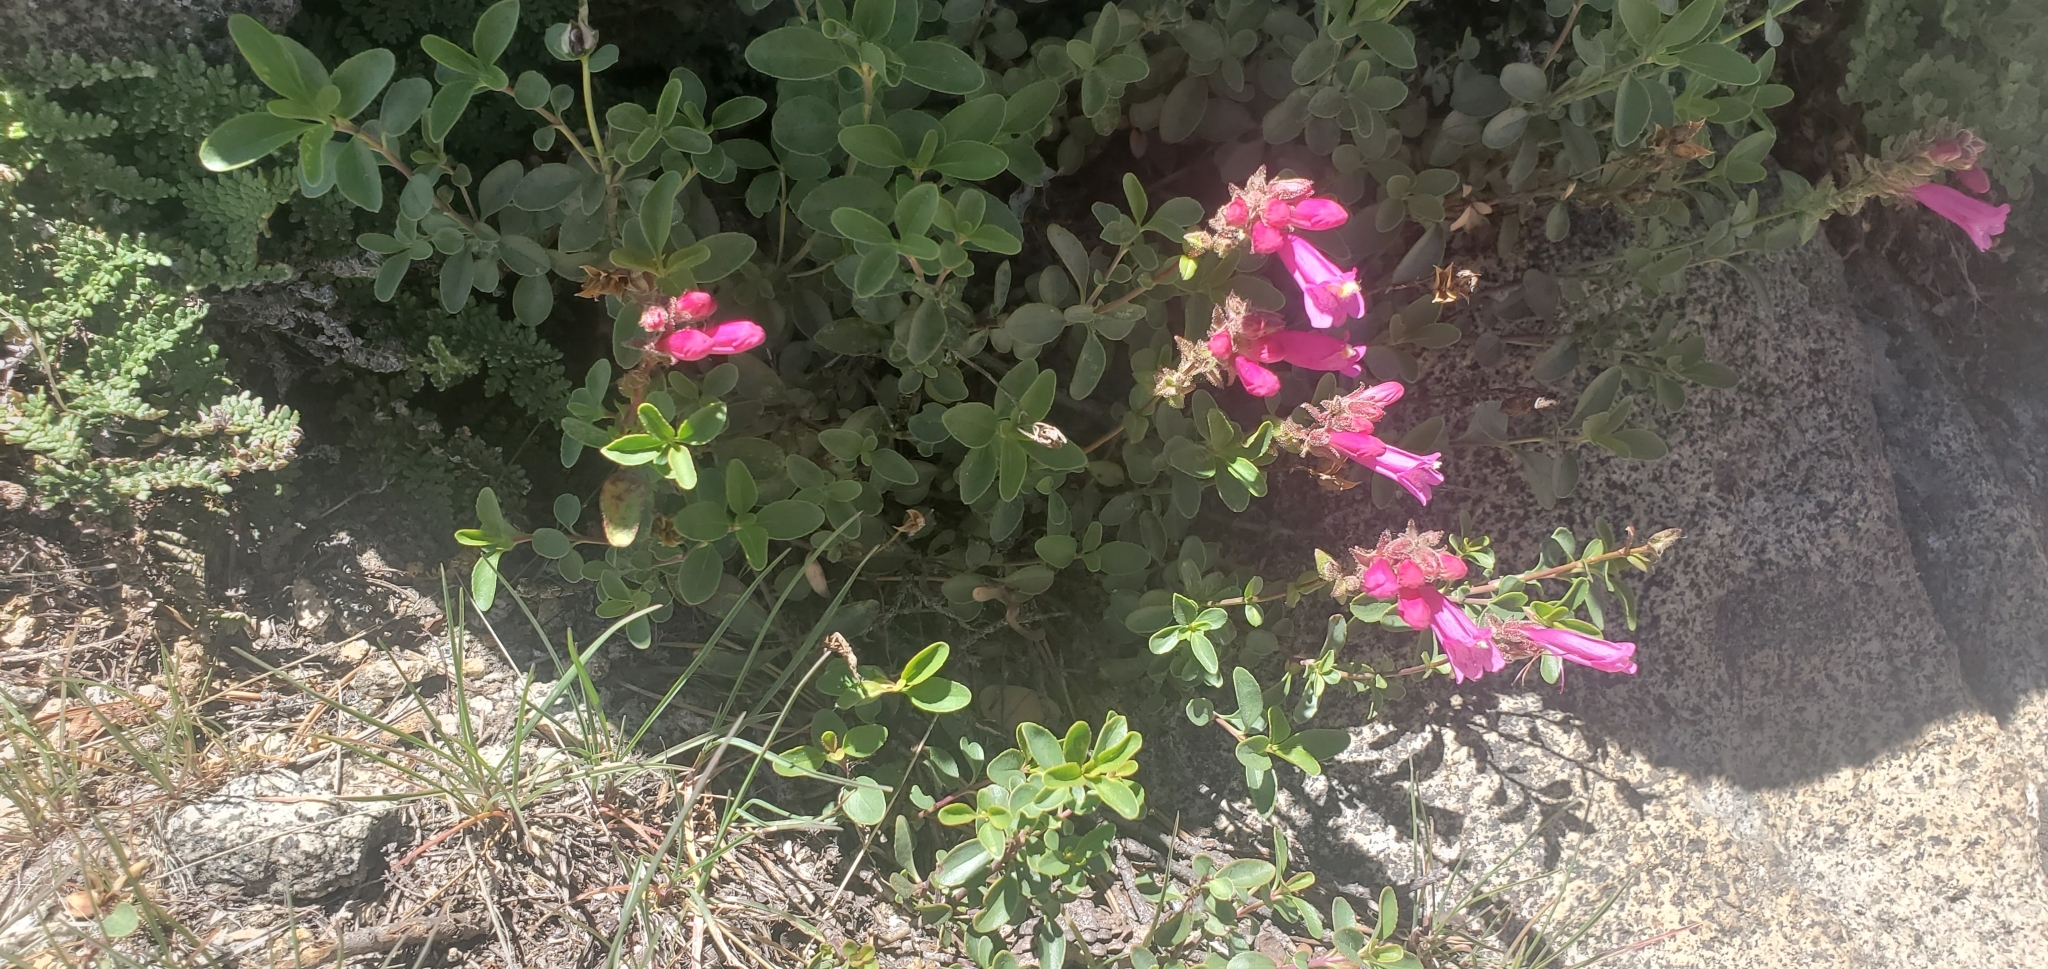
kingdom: Plantae
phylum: Tracheophyta
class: Magnoliopsida
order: Lamiales
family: Plantaginaceae
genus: Penstemon
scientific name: Penstemon newberryi
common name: Mountain-pride
